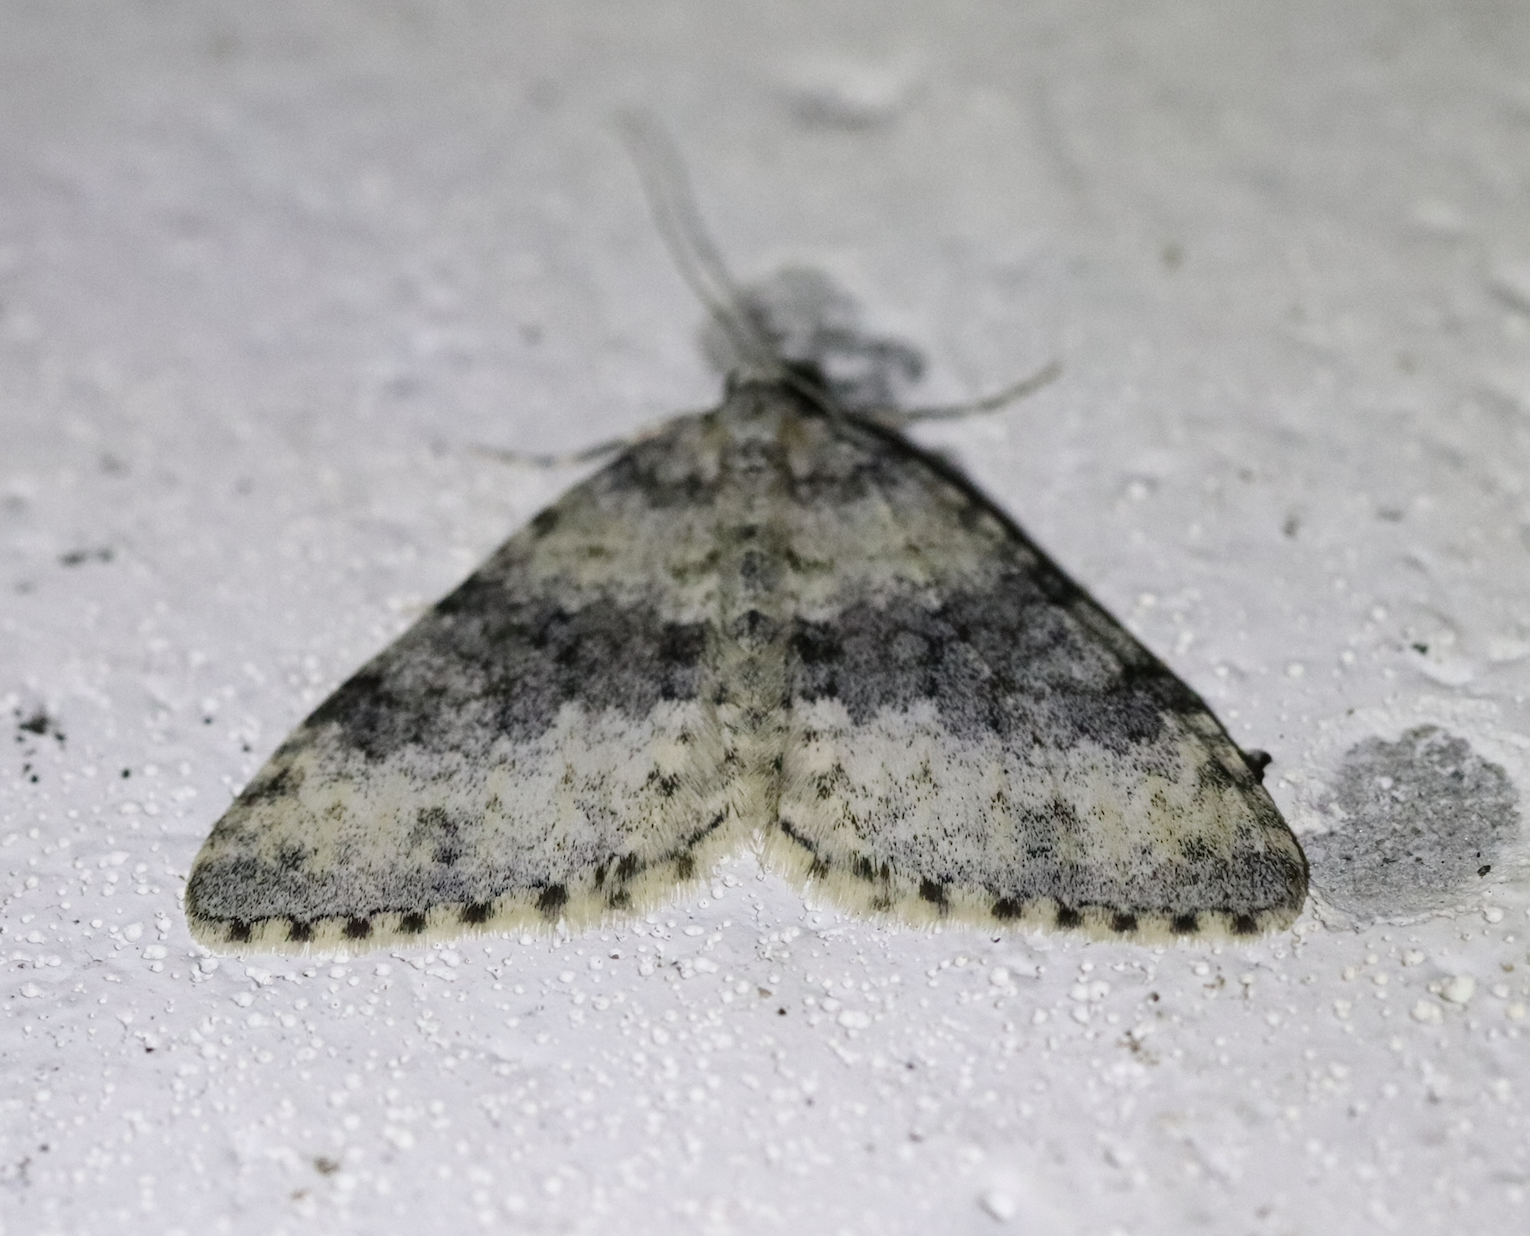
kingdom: Animalia
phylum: Arthropoda
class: Insecta
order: Lepidoptera
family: Geometridae
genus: Entephria
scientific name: Entephria cyanata
